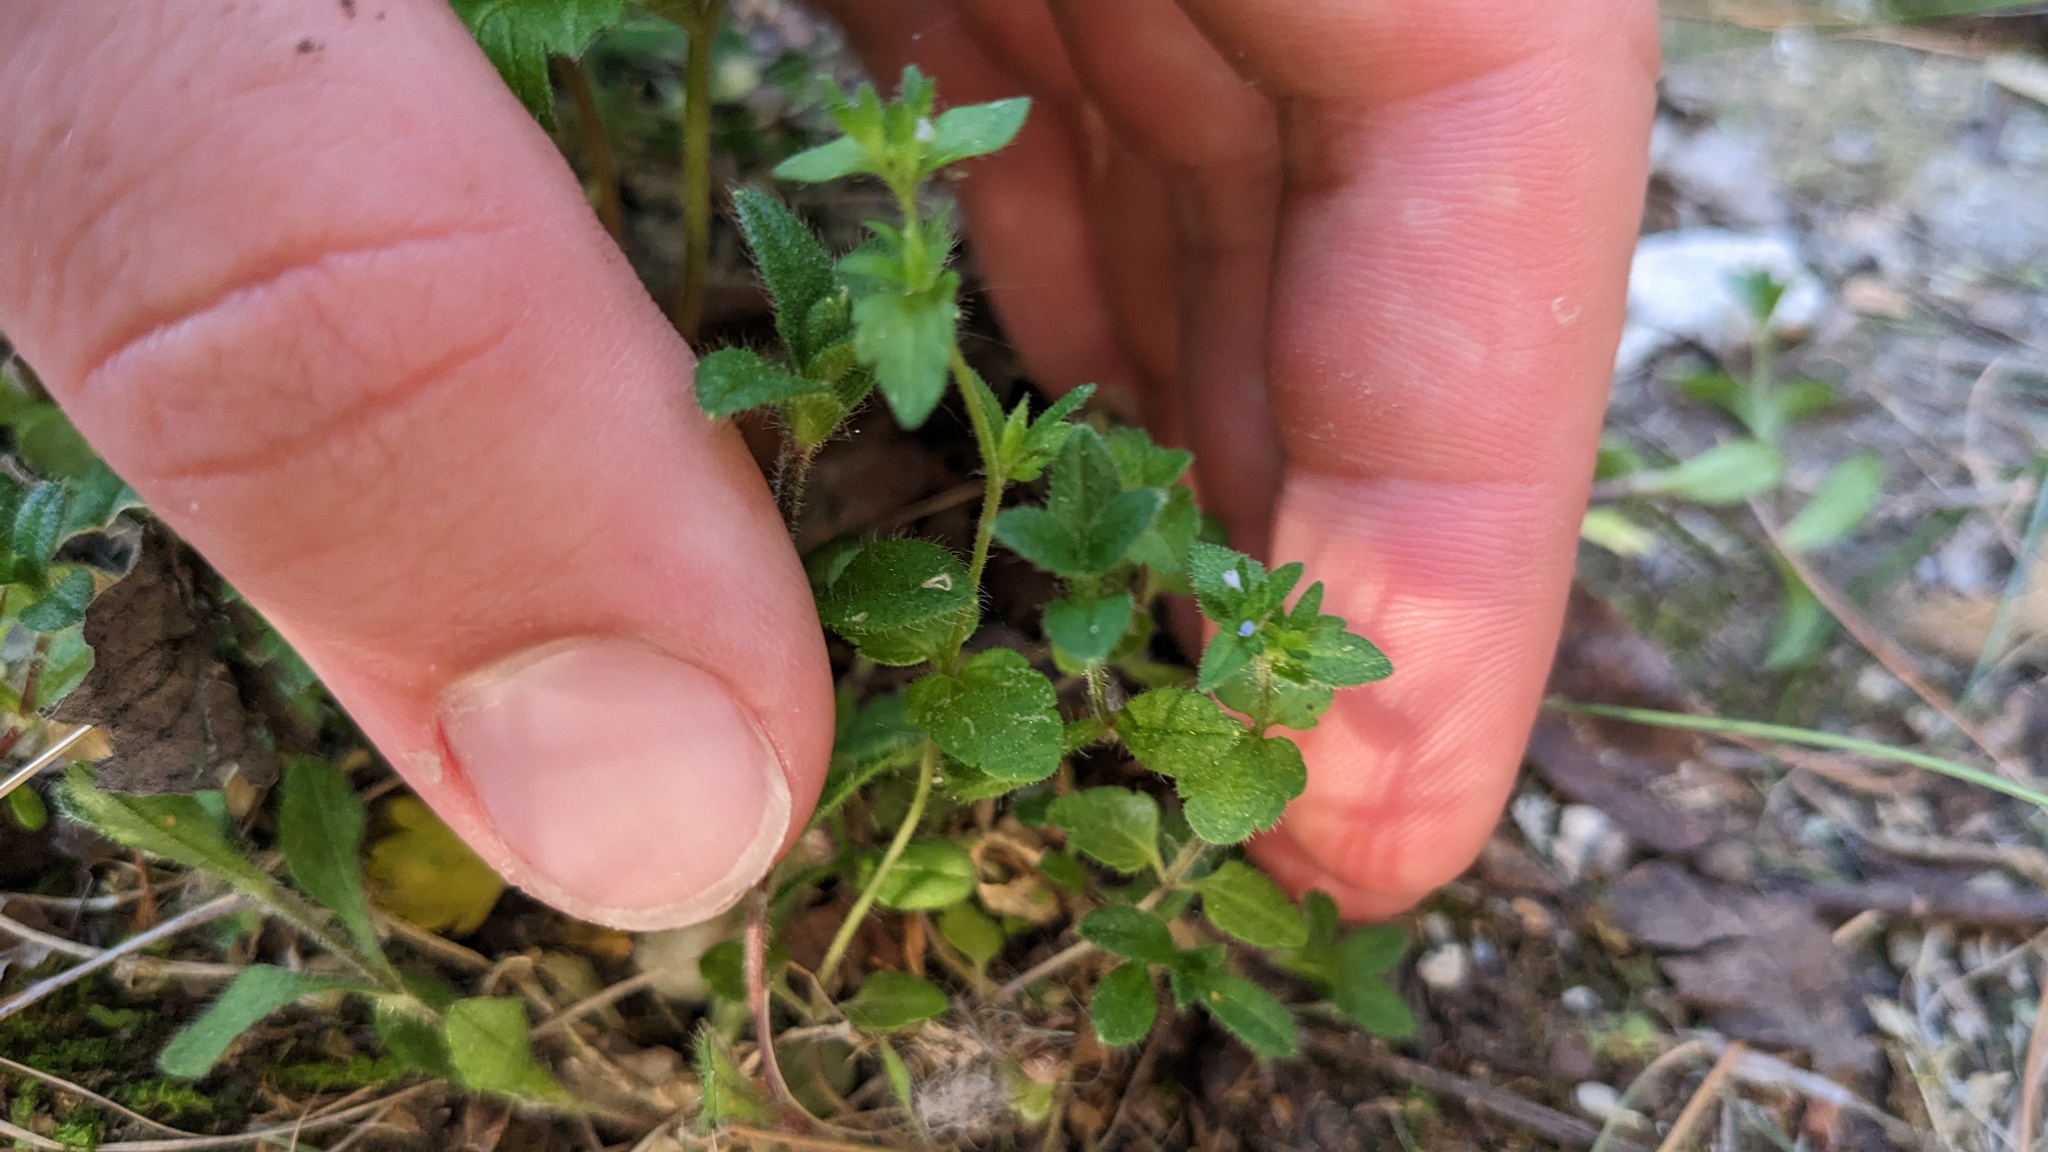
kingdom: Plantae
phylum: Tracheophyta
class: Magnoliopsida
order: Lamiales
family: Plantaginaceae
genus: Veronica
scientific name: Veronica arvensis
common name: Corn speedwell
